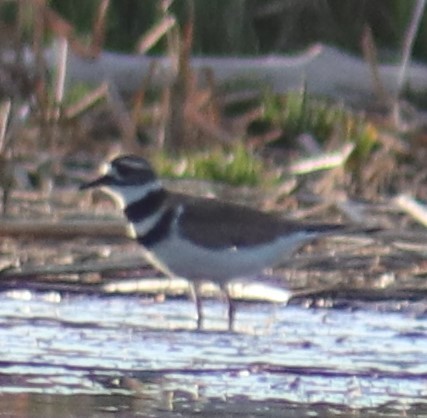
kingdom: Animalia
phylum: Chordata
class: Aves
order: Charadriiformes
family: Charadriidae
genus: Charadrius
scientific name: Charadrius vociferus
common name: Killdeer
